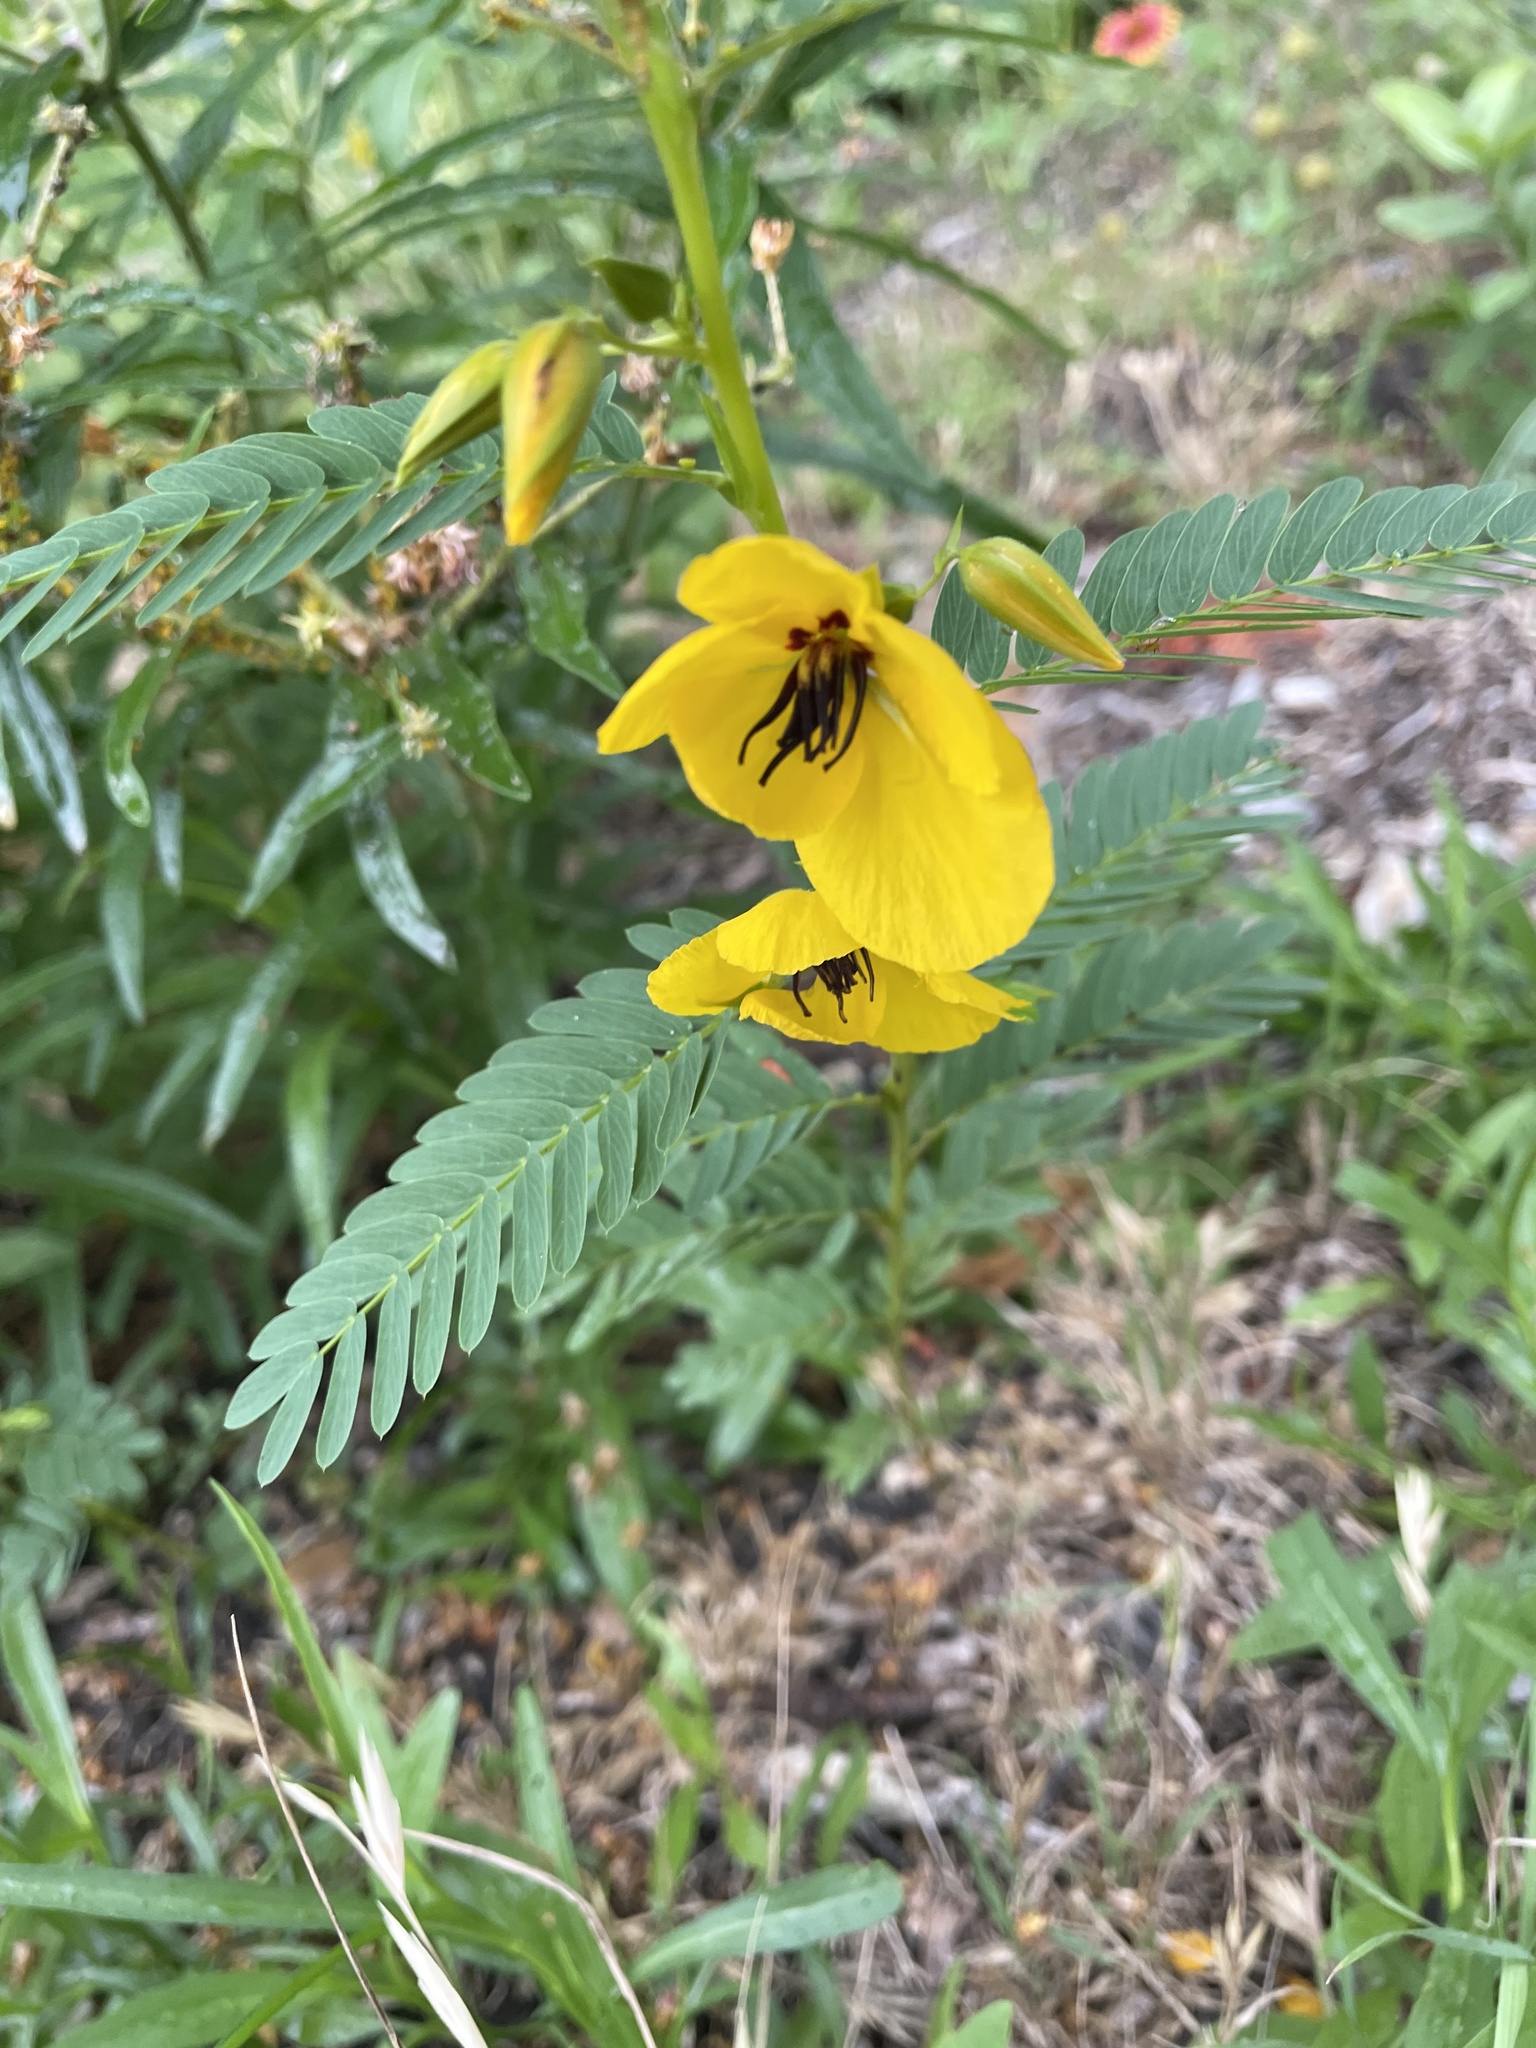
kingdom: Plantae
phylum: Tracheophyta
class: Magnoliopsida
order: Fabales
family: Fabaceae
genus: Chamaecrista
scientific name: Chamaecrista fasciculata
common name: Golden cassia
